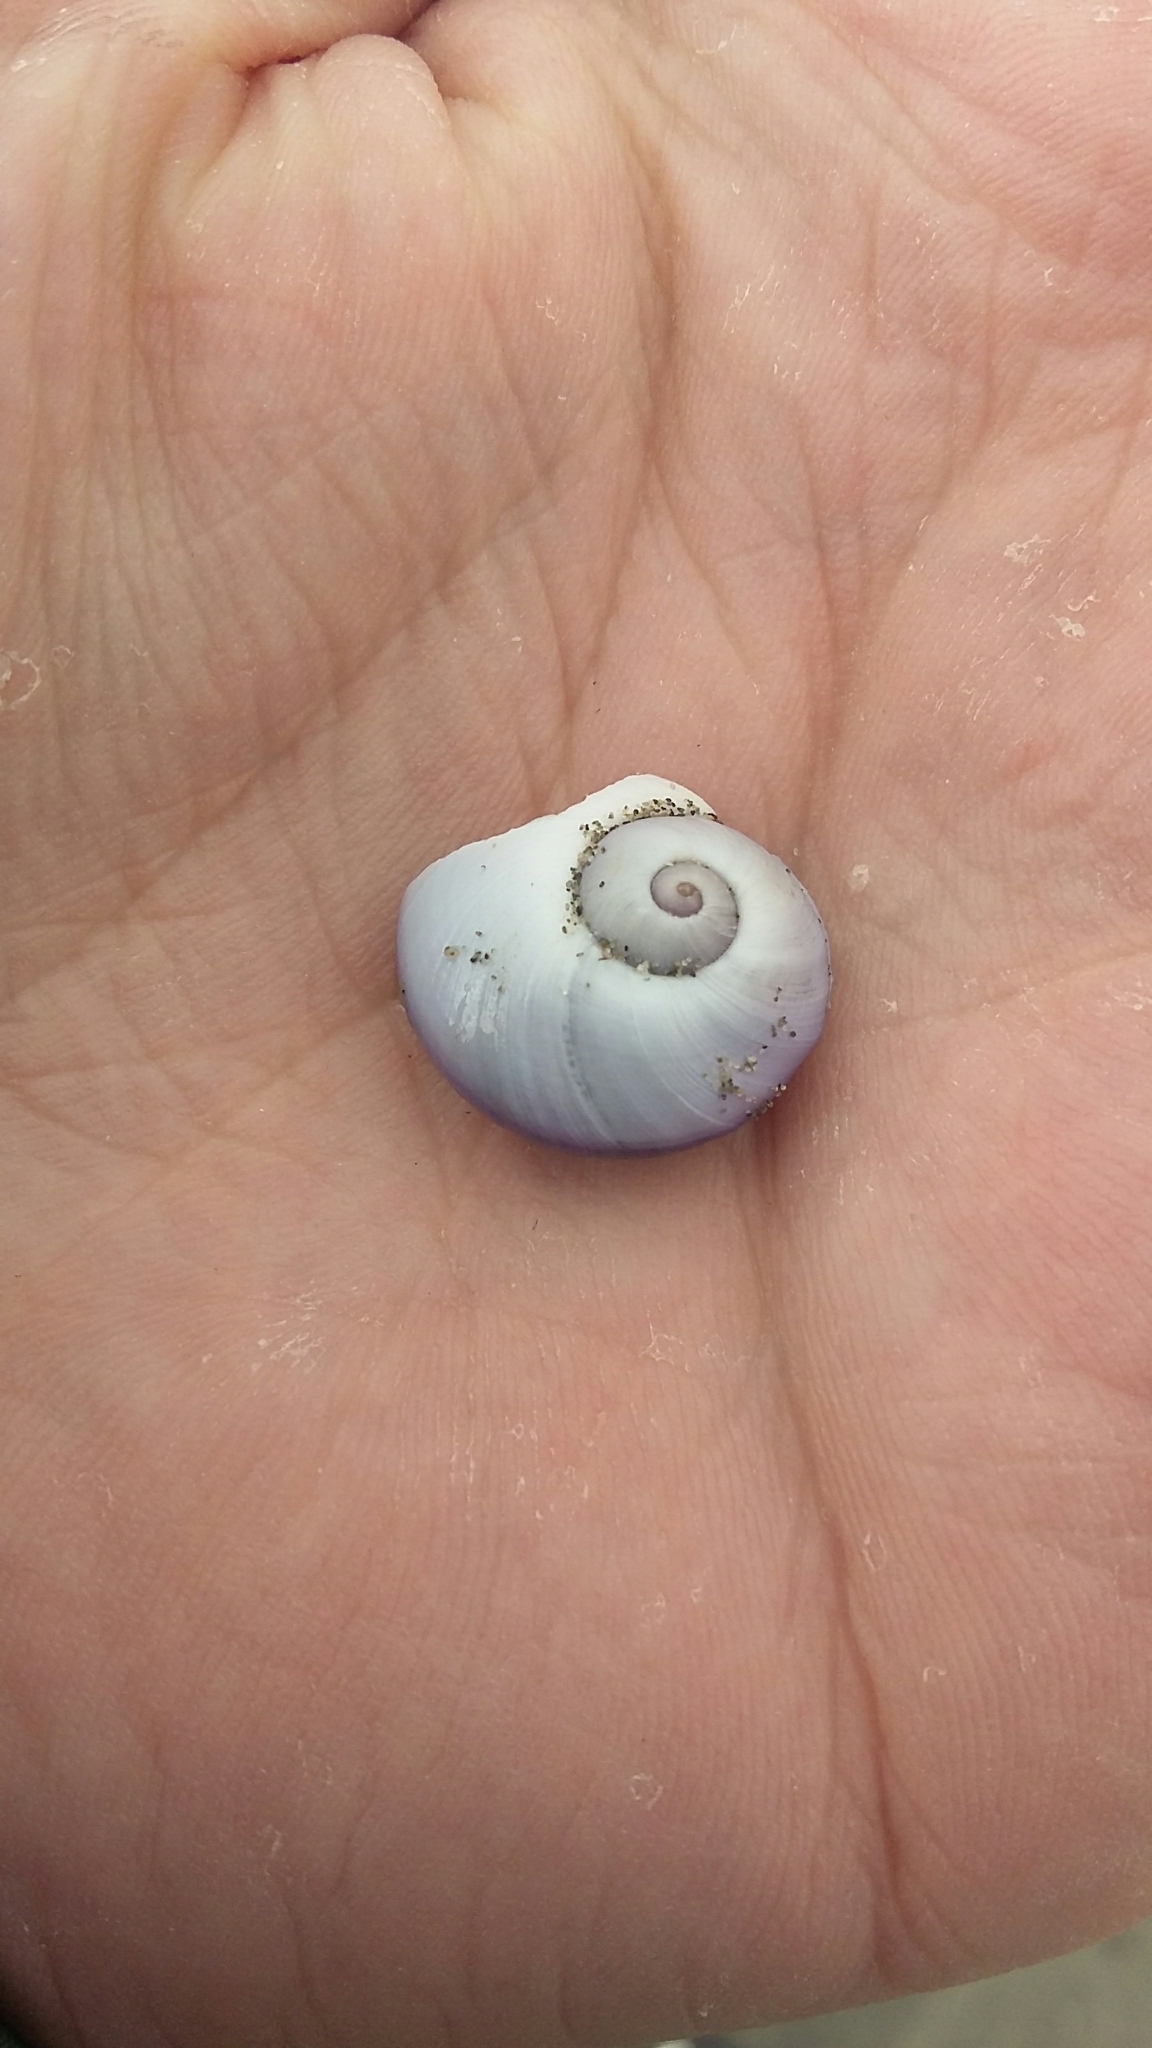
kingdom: Animalia
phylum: Mollusca
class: Gastropoda
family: Epitoniidae
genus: Janthina
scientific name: Janthina janthina
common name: Common janthina
